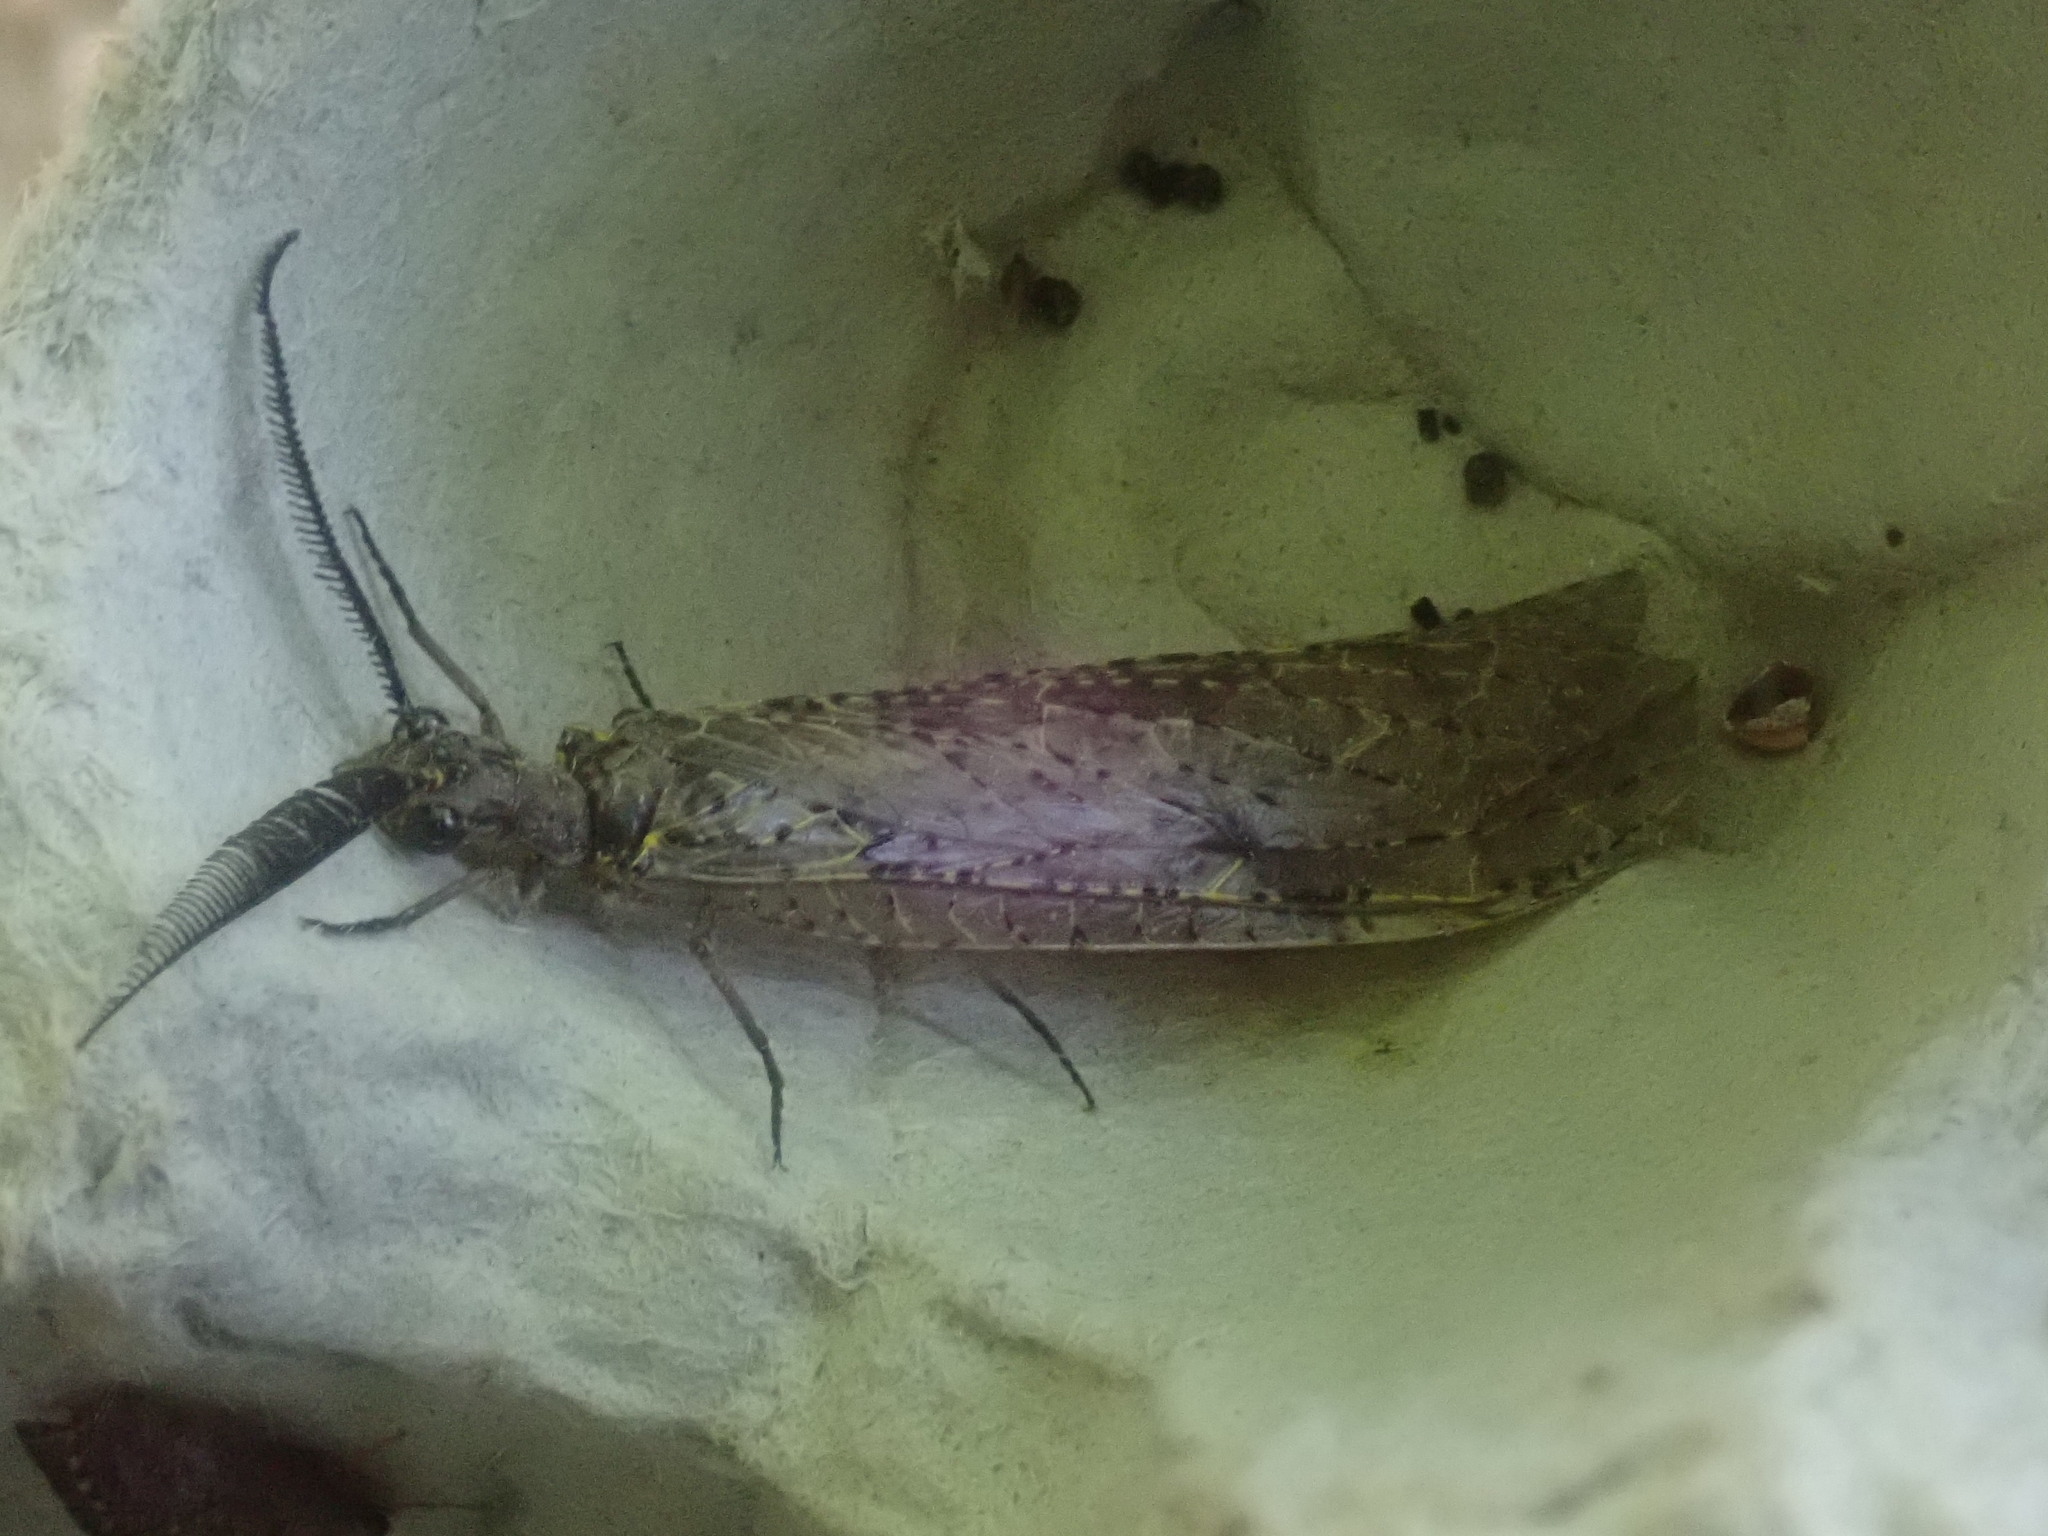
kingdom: Animalia
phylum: Arthropoda
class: Insecta
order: Megaloptera
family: Corydalidae
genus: Chauliodes
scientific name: Chauliodes rastricornis
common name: Spring fishfly
